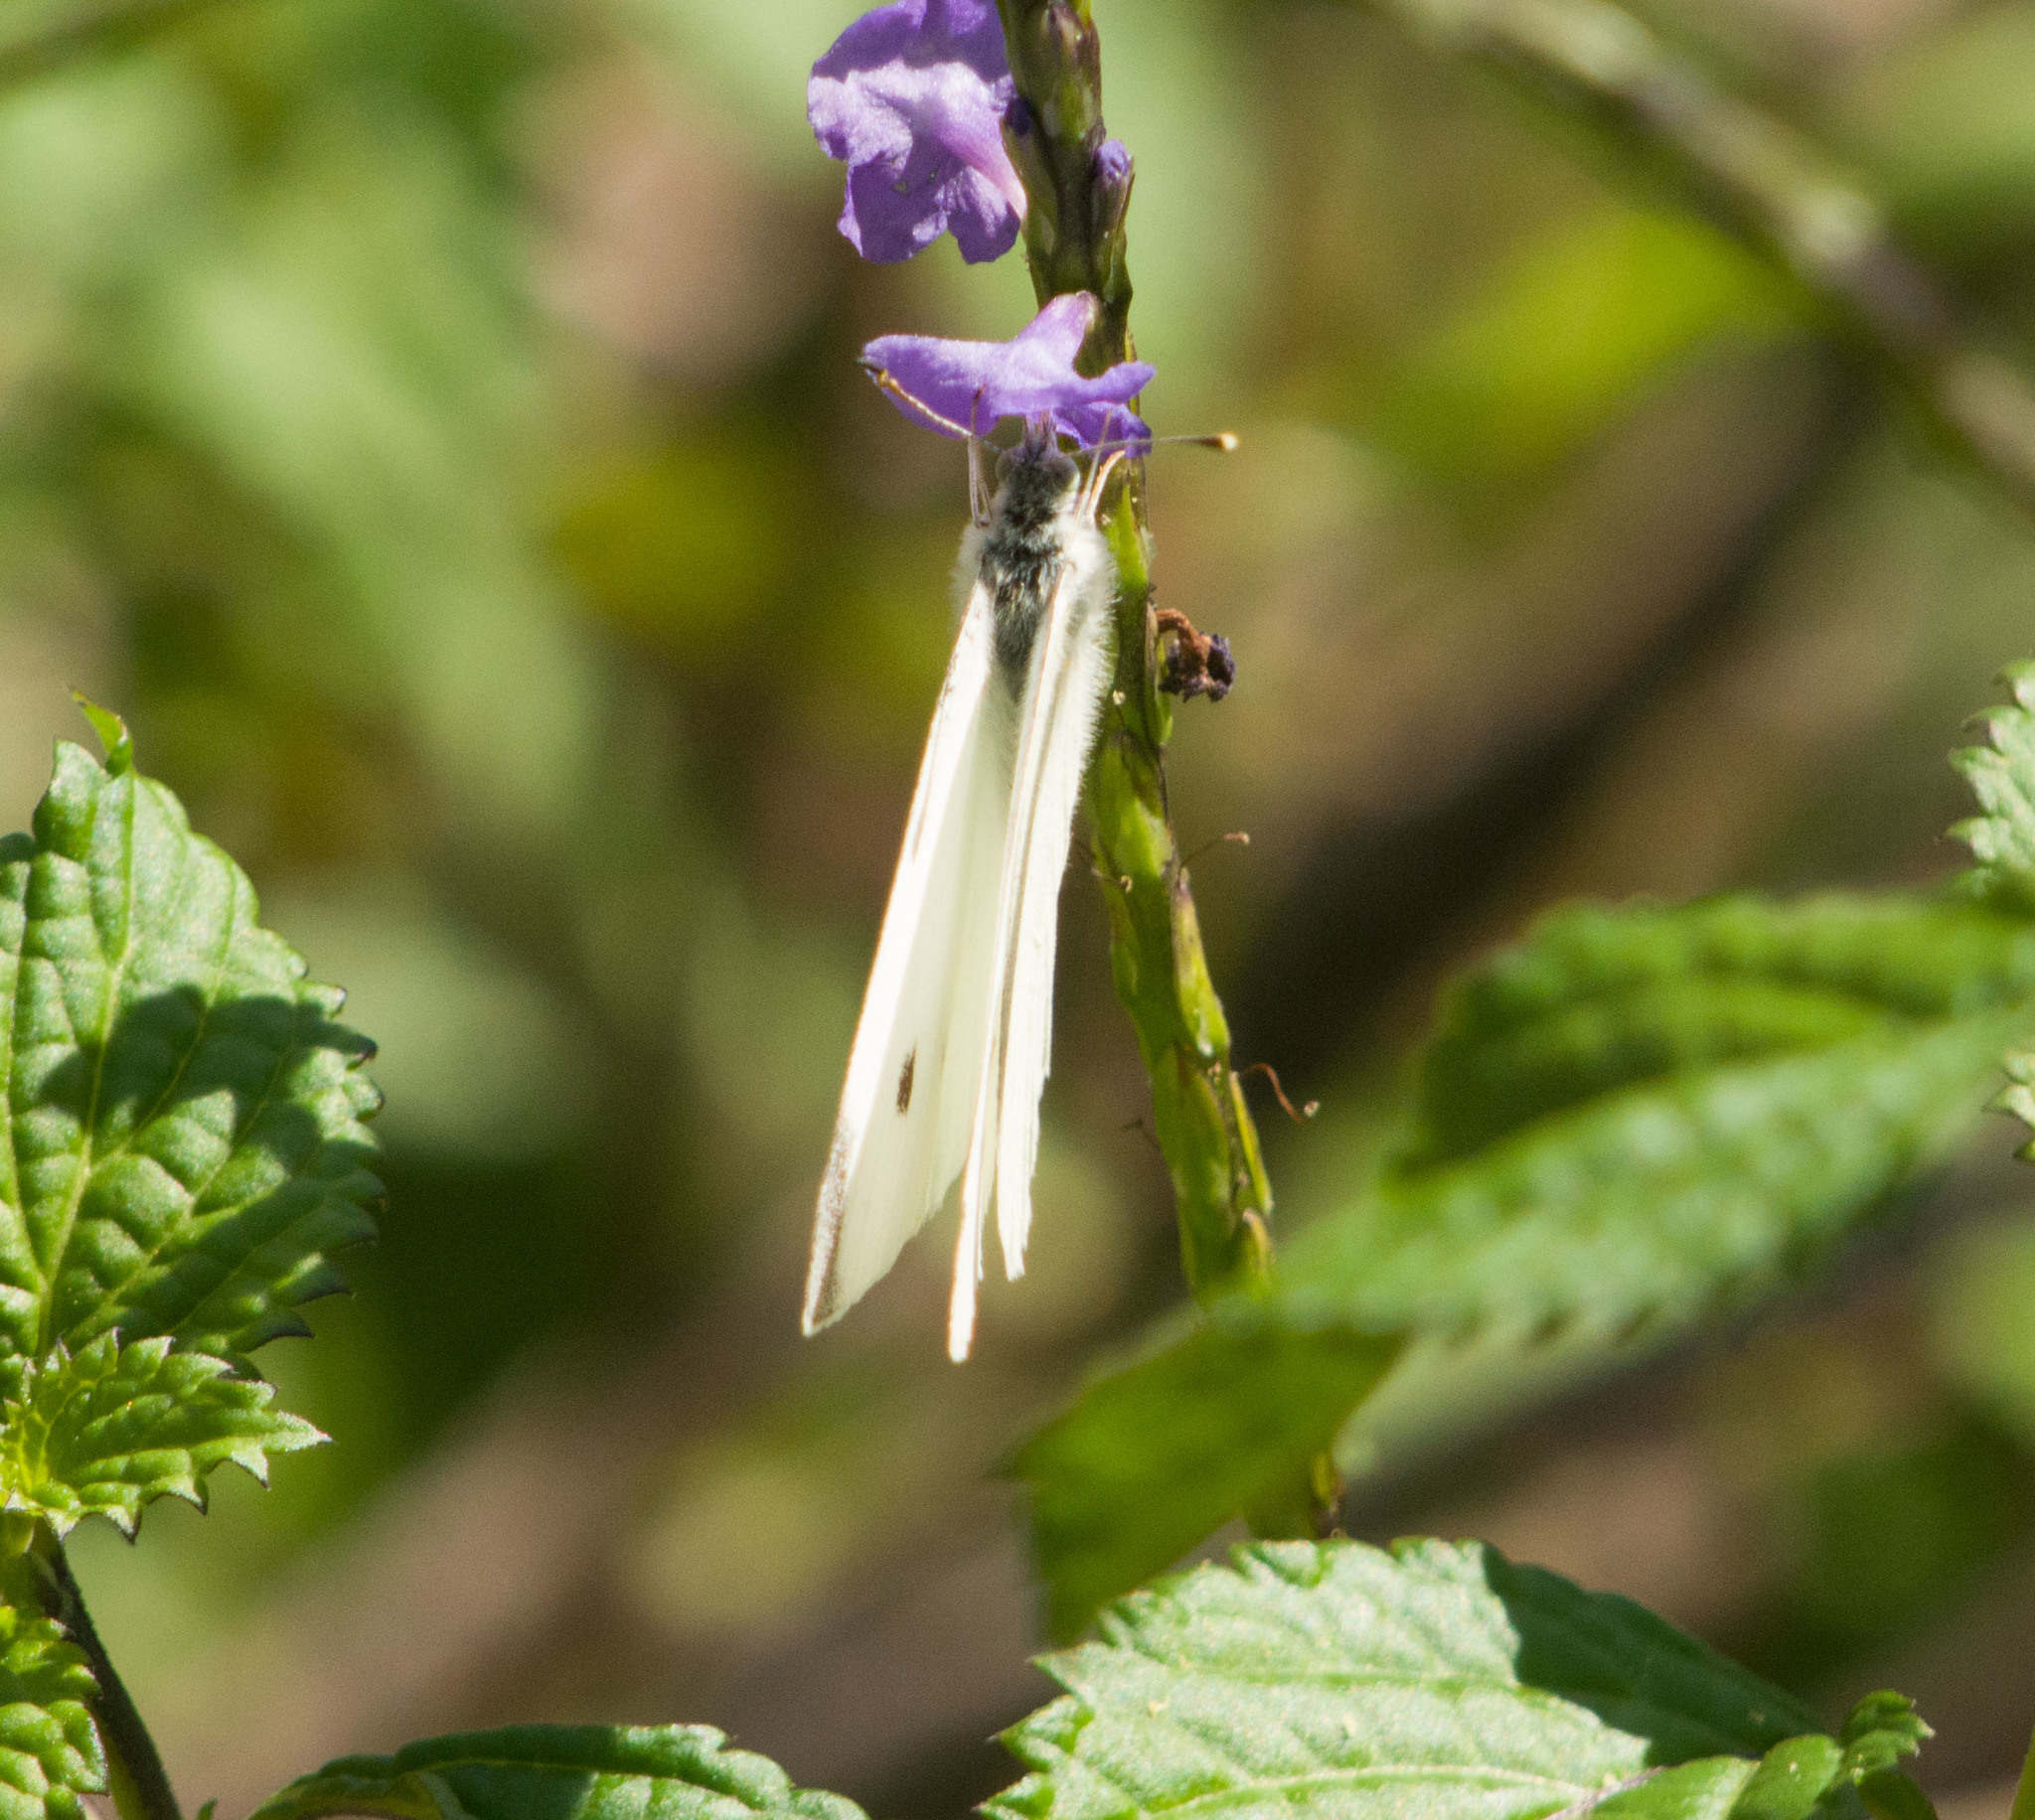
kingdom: Animalia
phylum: Arthropoda
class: Insecta
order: Lepidoptera
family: Pieridae
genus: Pieris
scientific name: Pieris rapae
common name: Small white
